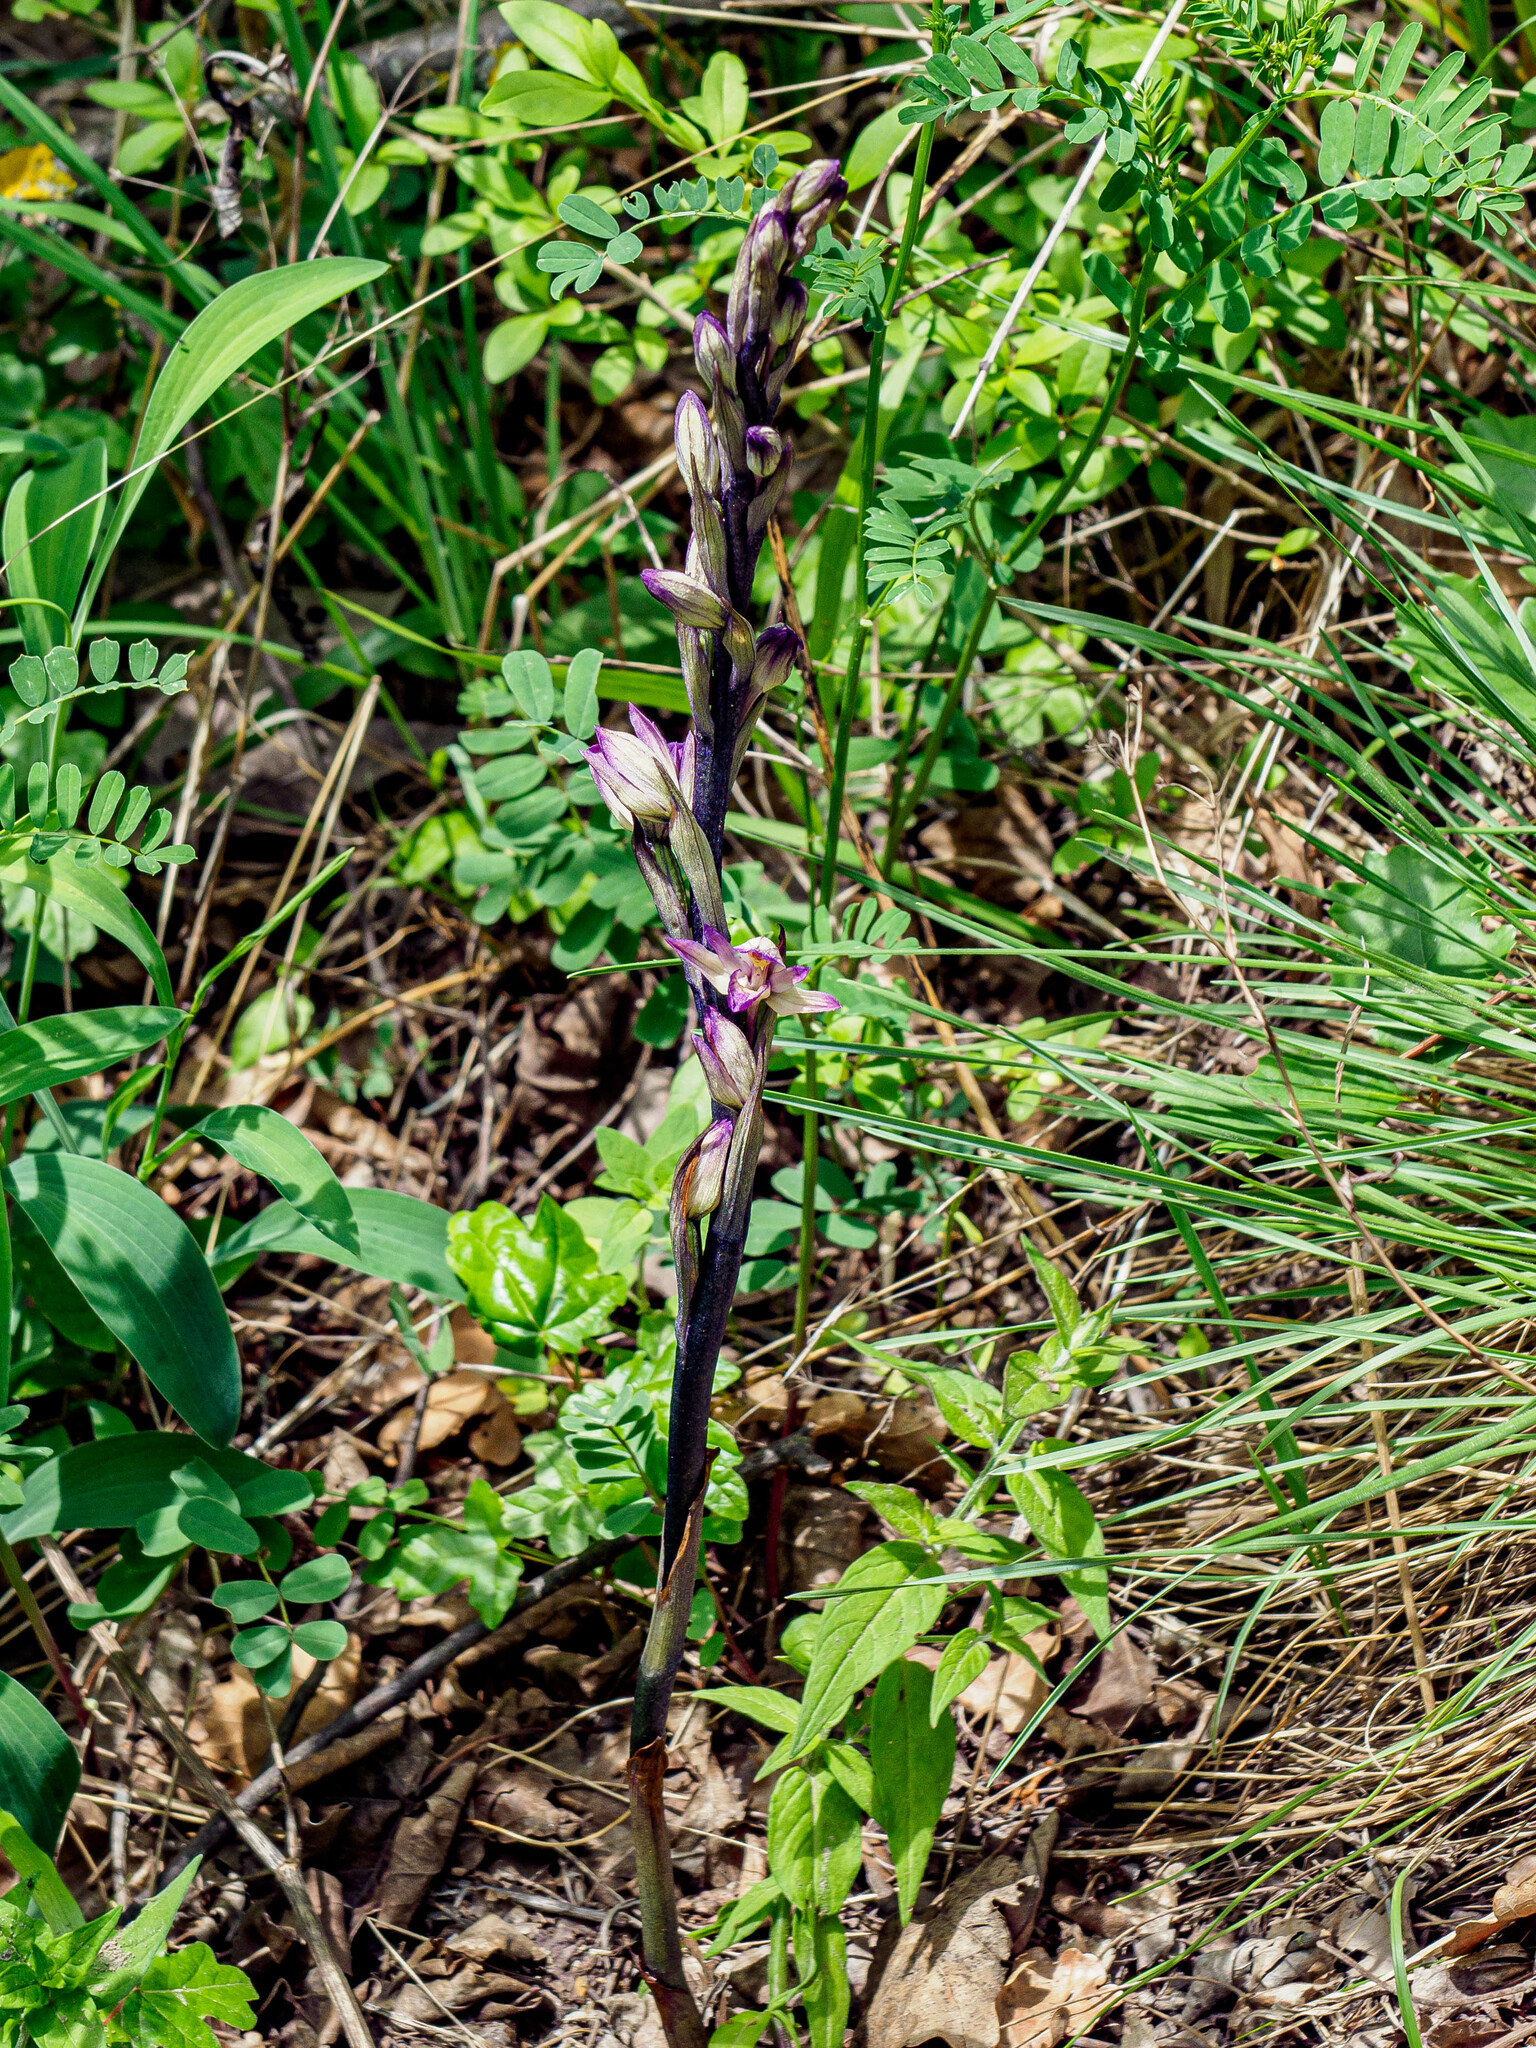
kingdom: Plantae
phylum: Tracheophyta
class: Liliopsida
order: Asparagales
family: Orchidaceae
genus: Limodorum
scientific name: Limodorum abortivum
